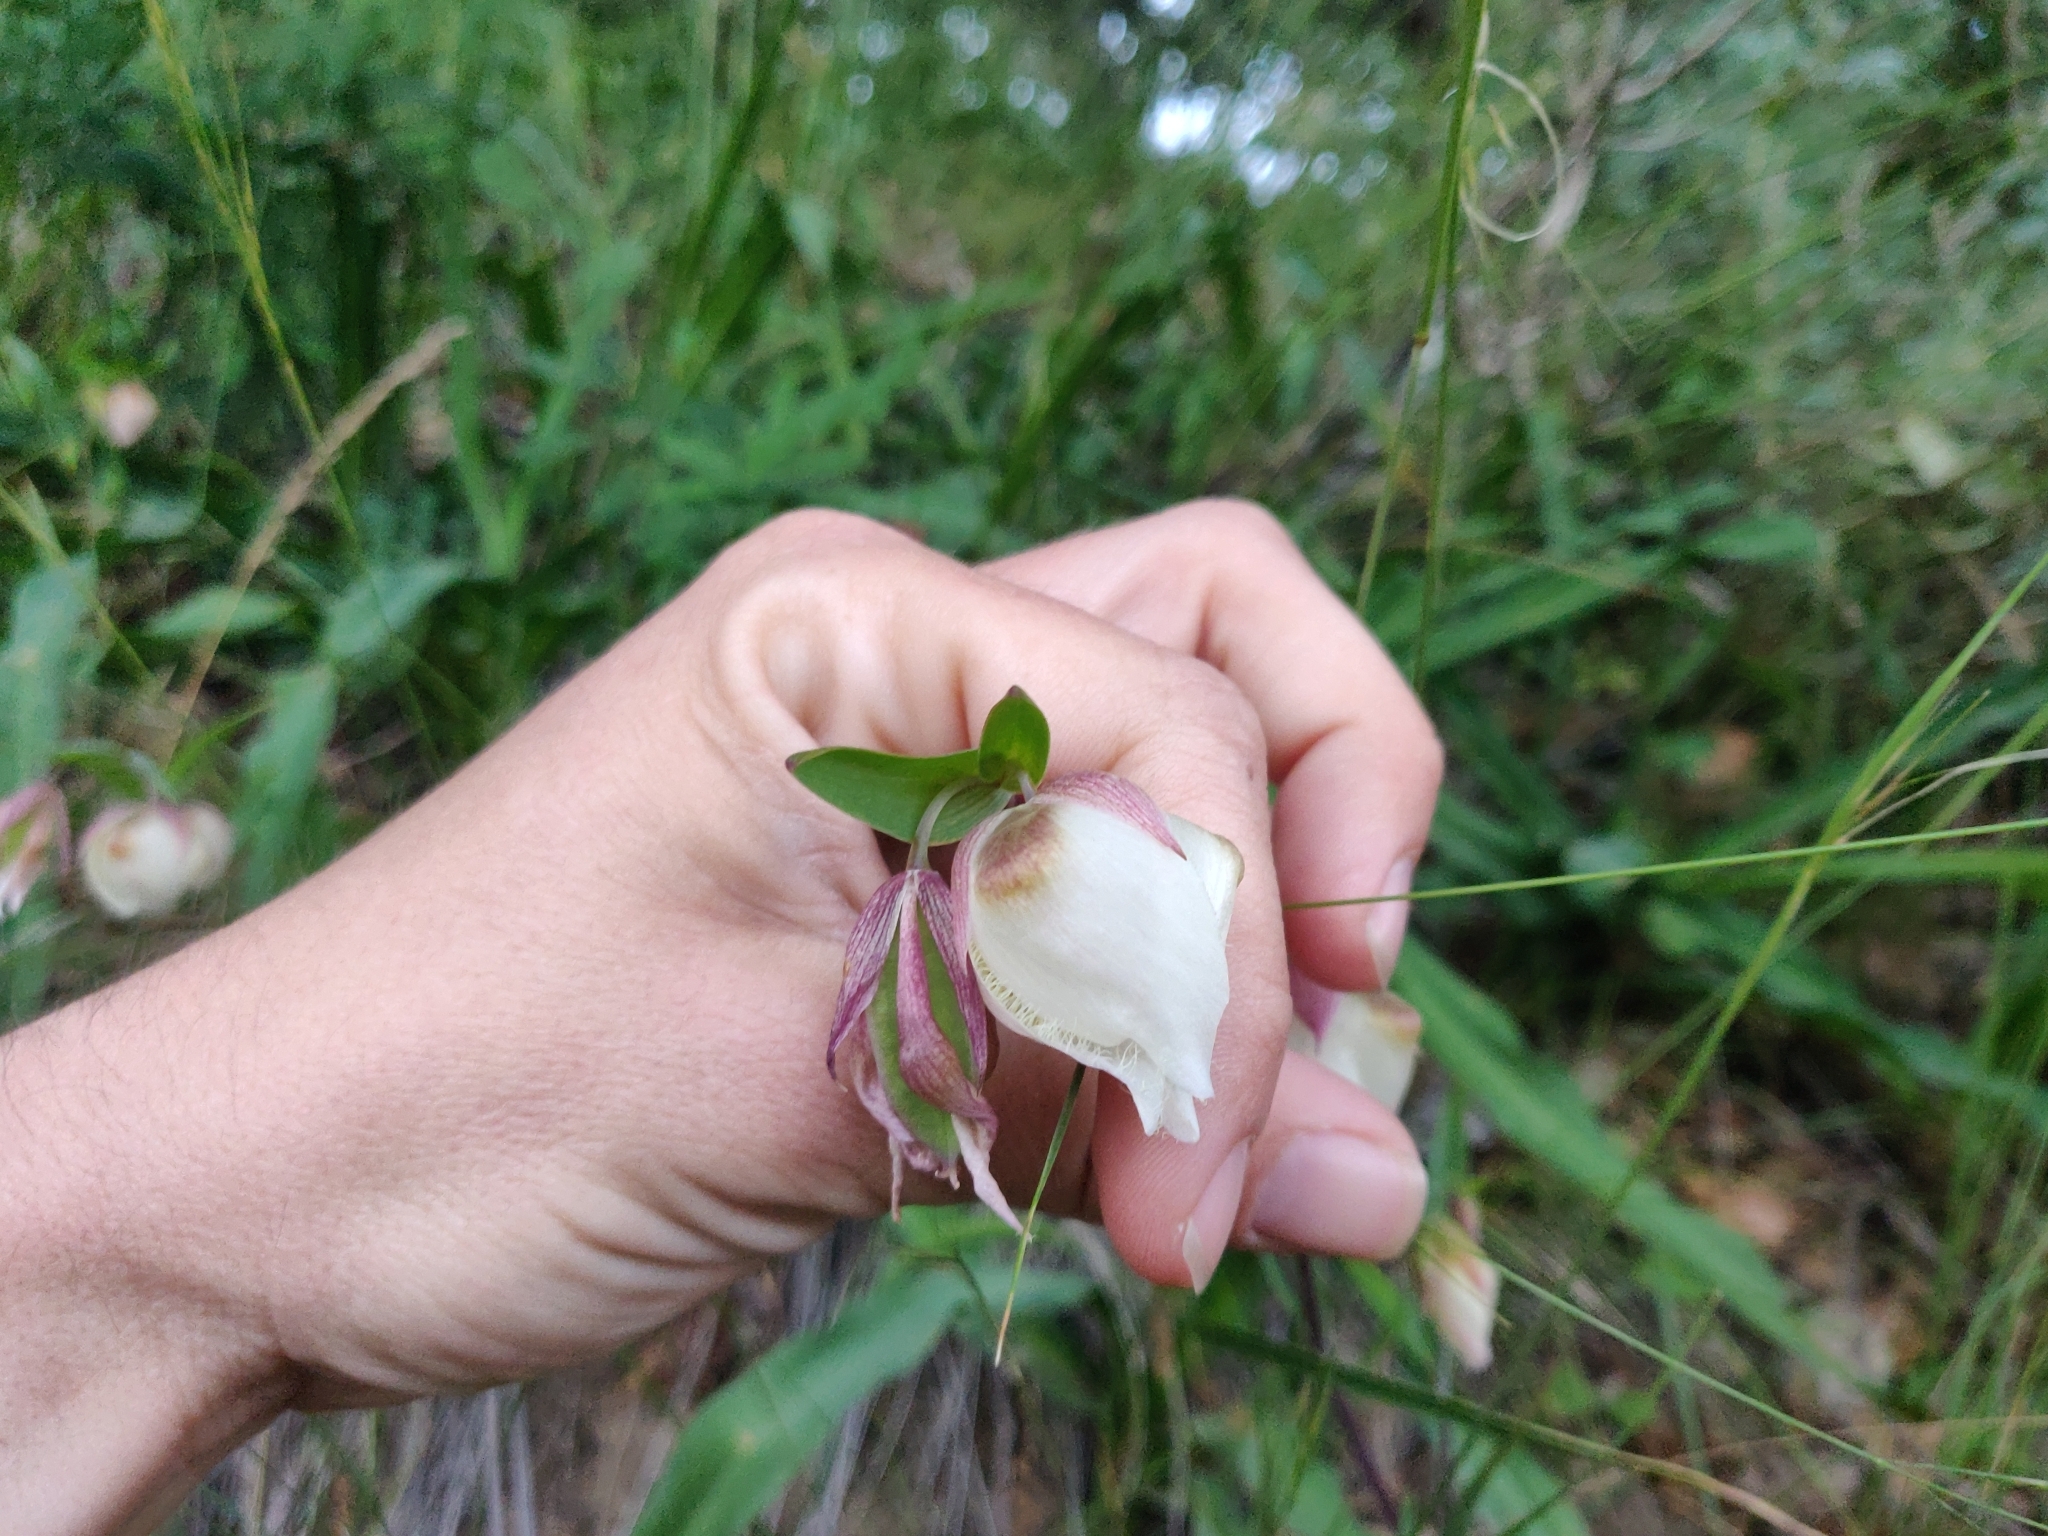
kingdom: Plantae
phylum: Tracheophyta
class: Liliopsida
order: Liliales
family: Liliaceae
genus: Calochortus
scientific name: Calochortus albus
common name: Fairy-lantern
